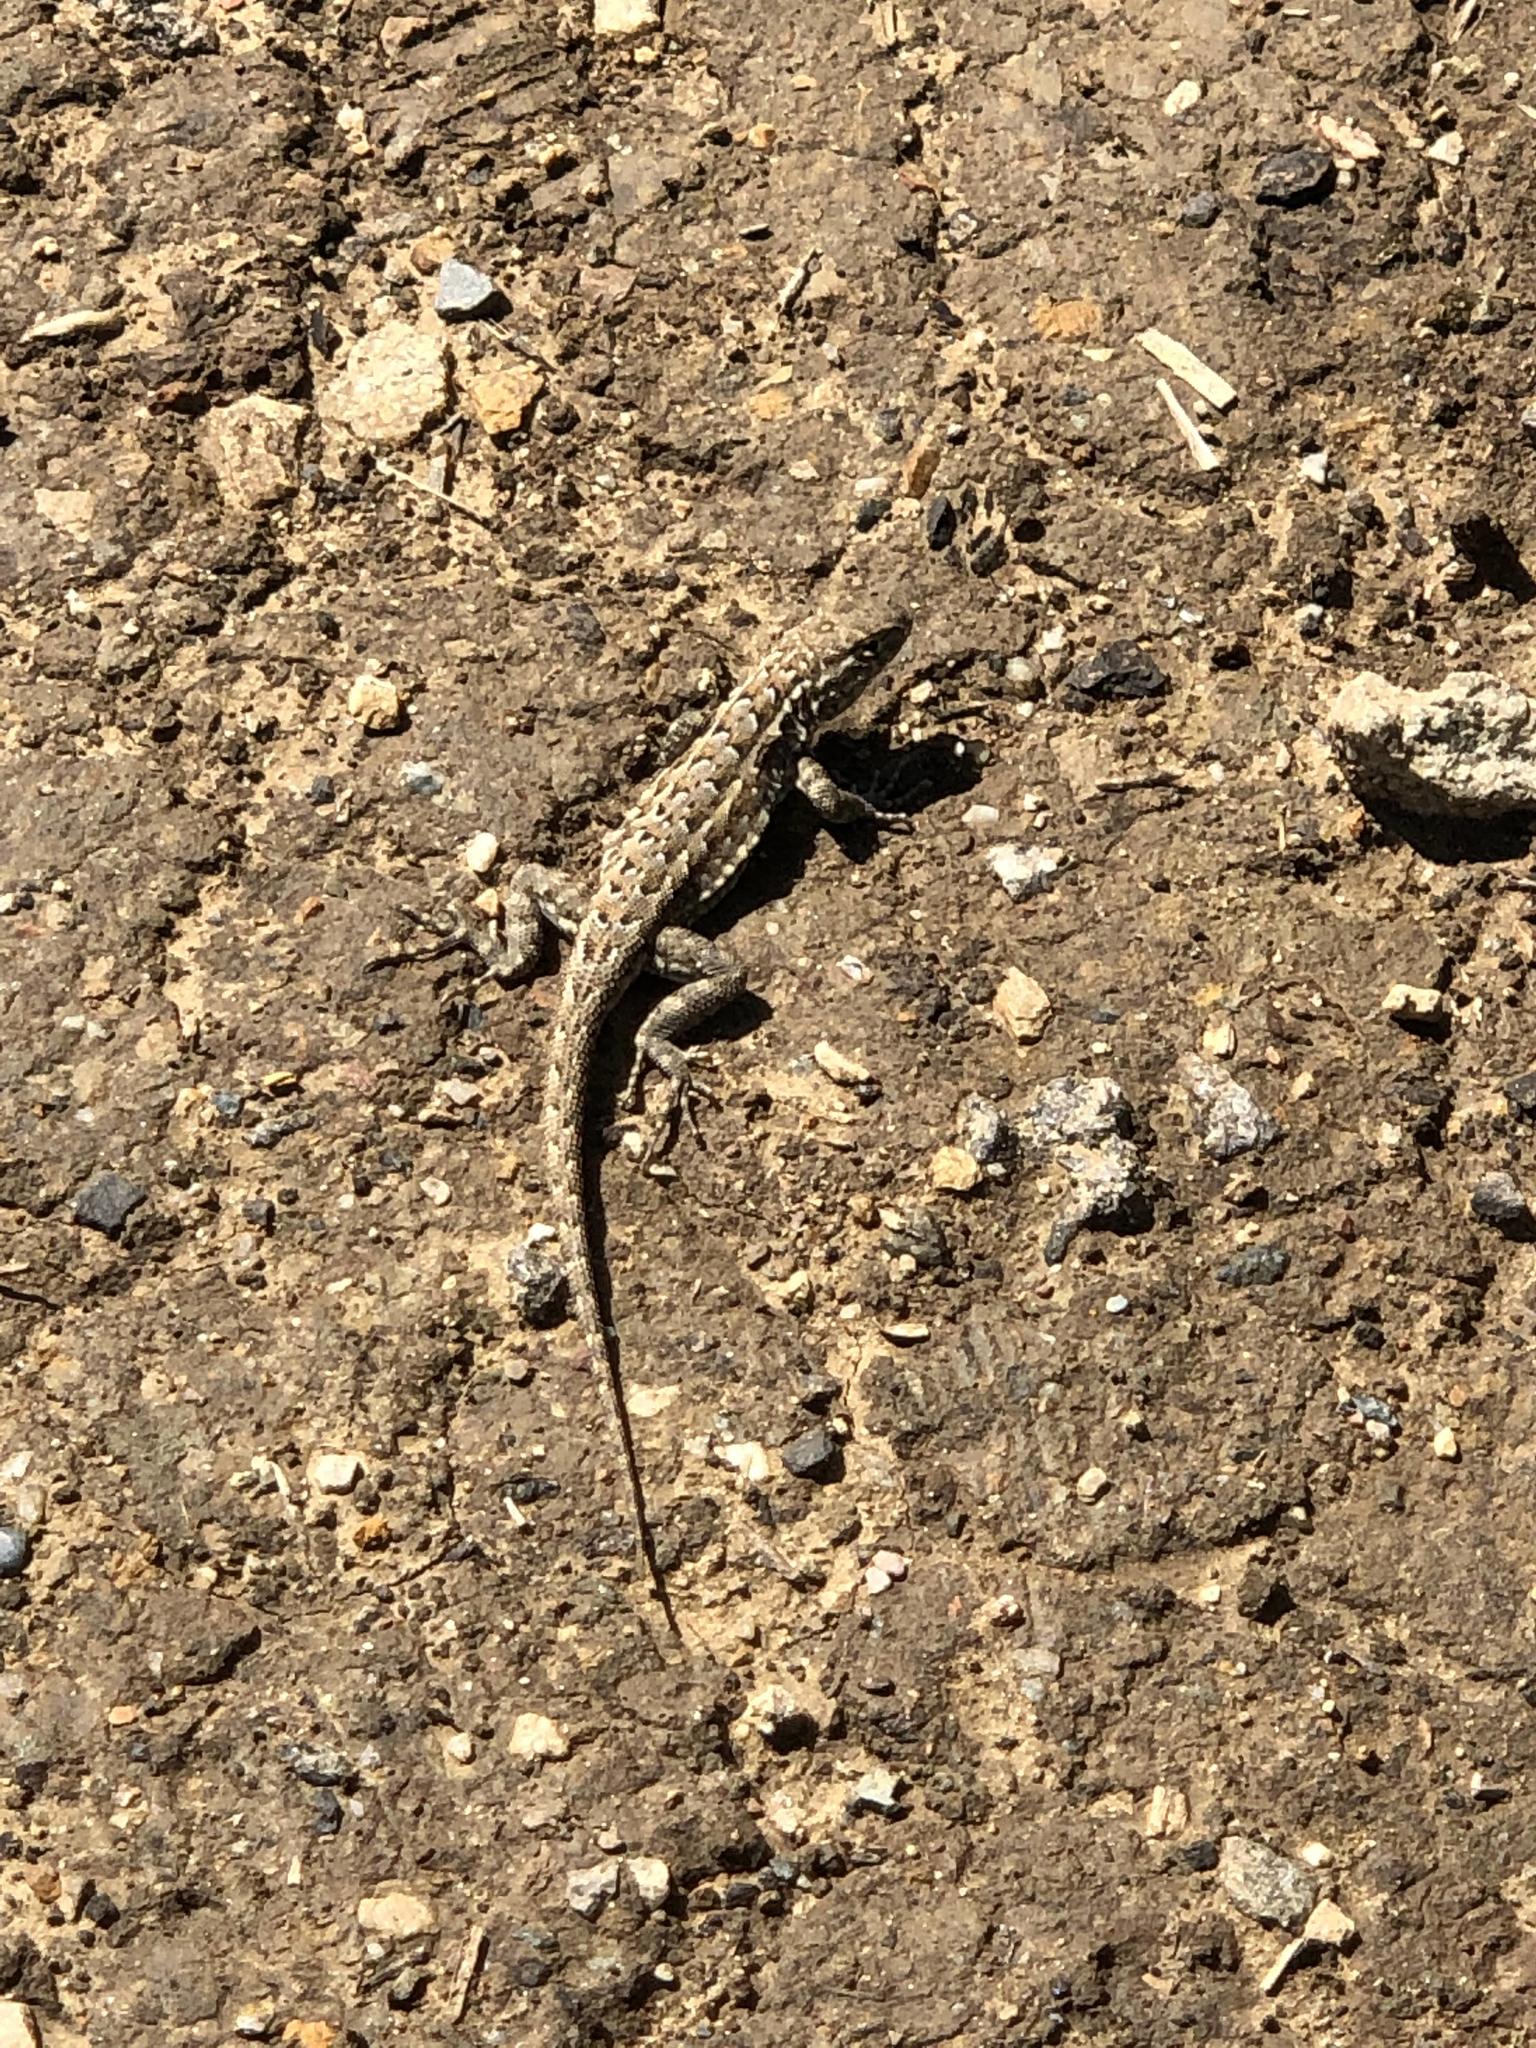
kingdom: Animalia
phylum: Chordata
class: Squamata
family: Phrynosomatidae
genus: Uta
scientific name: Uta stansburiana
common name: Side-blotched lizard
